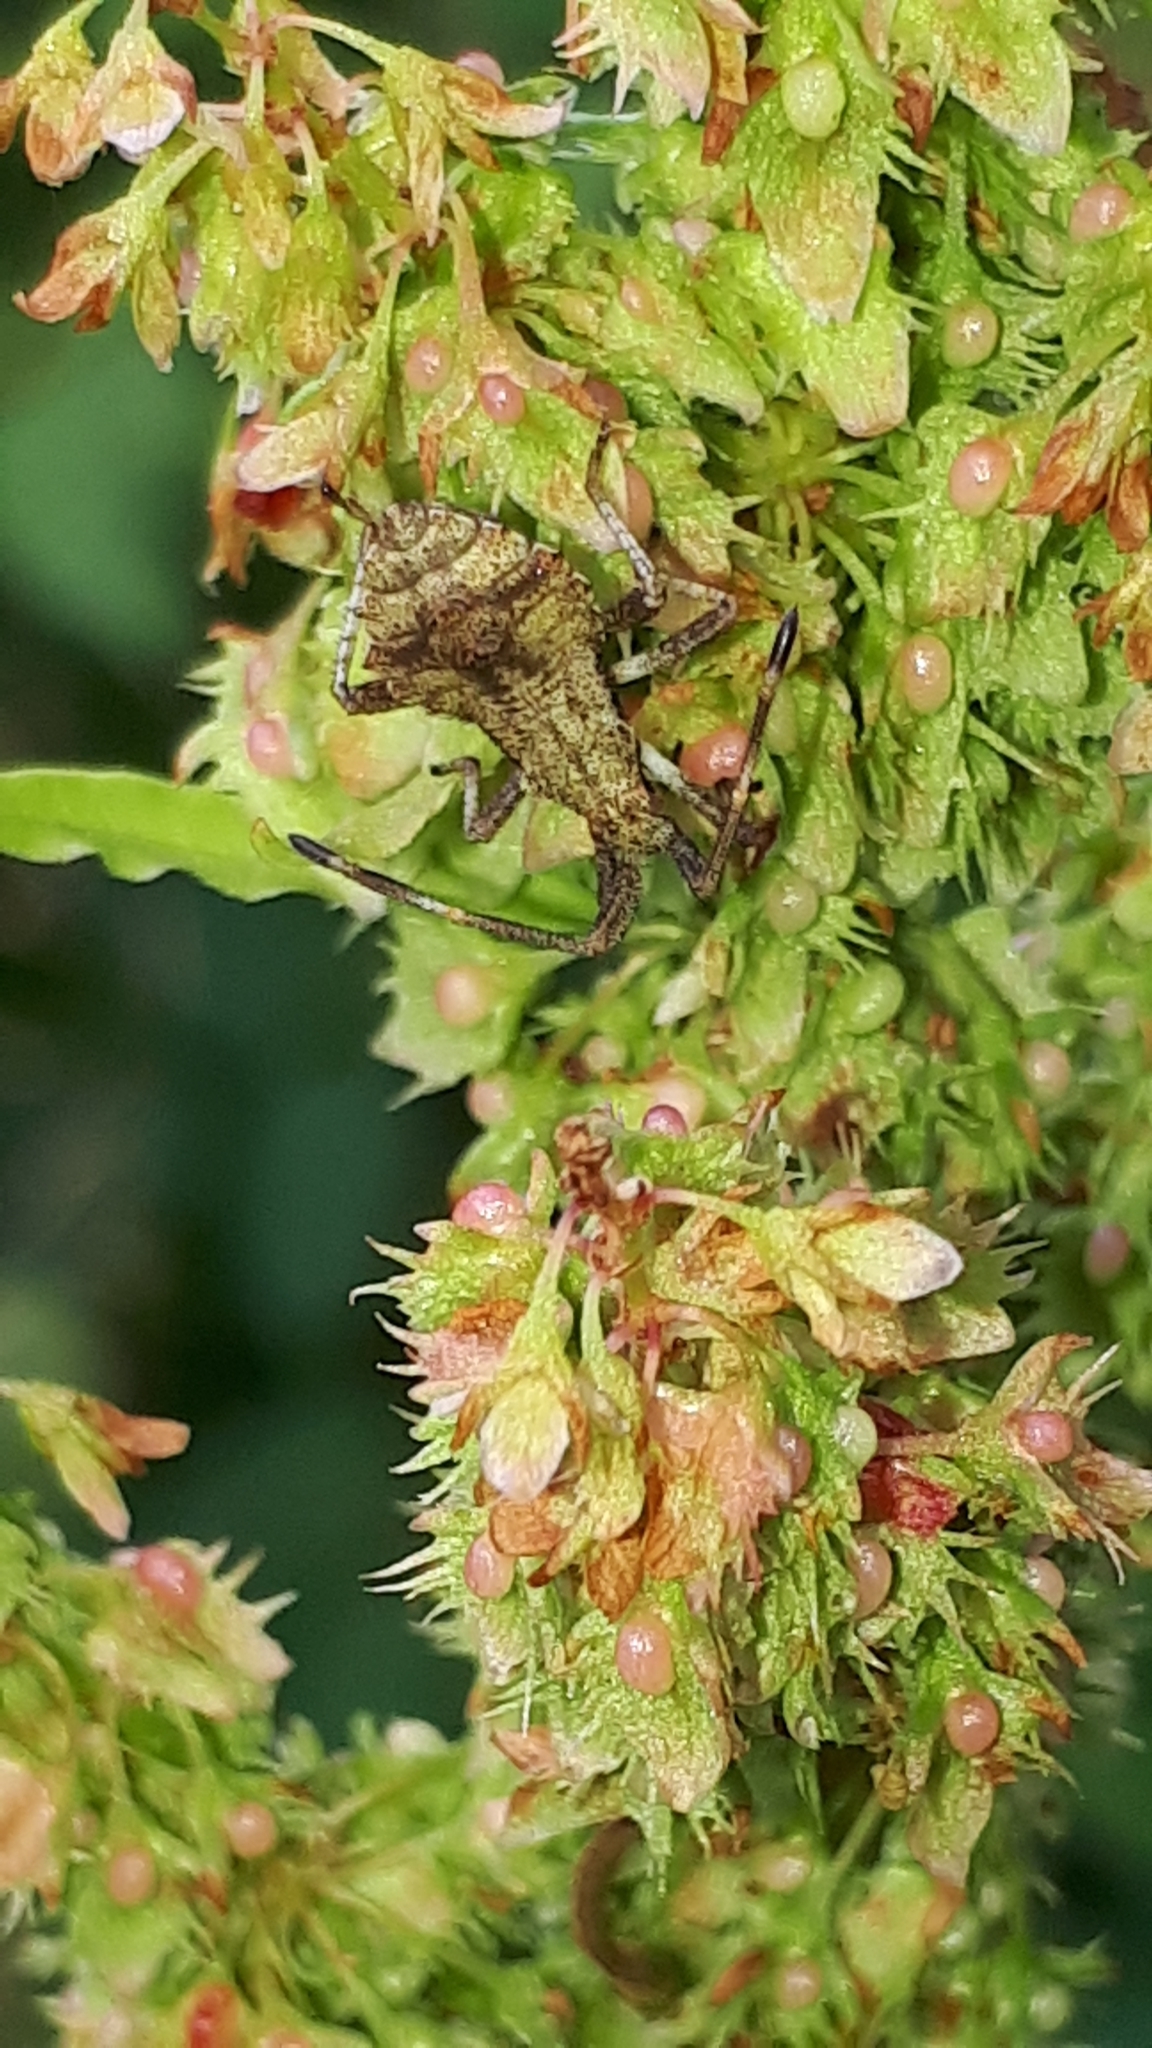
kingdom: Animalia
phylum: Arthropoda
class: Insecta
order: Hemiptera
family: Coreidae
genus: Coreus
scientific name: Coreus marginatus
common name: Dock bug
